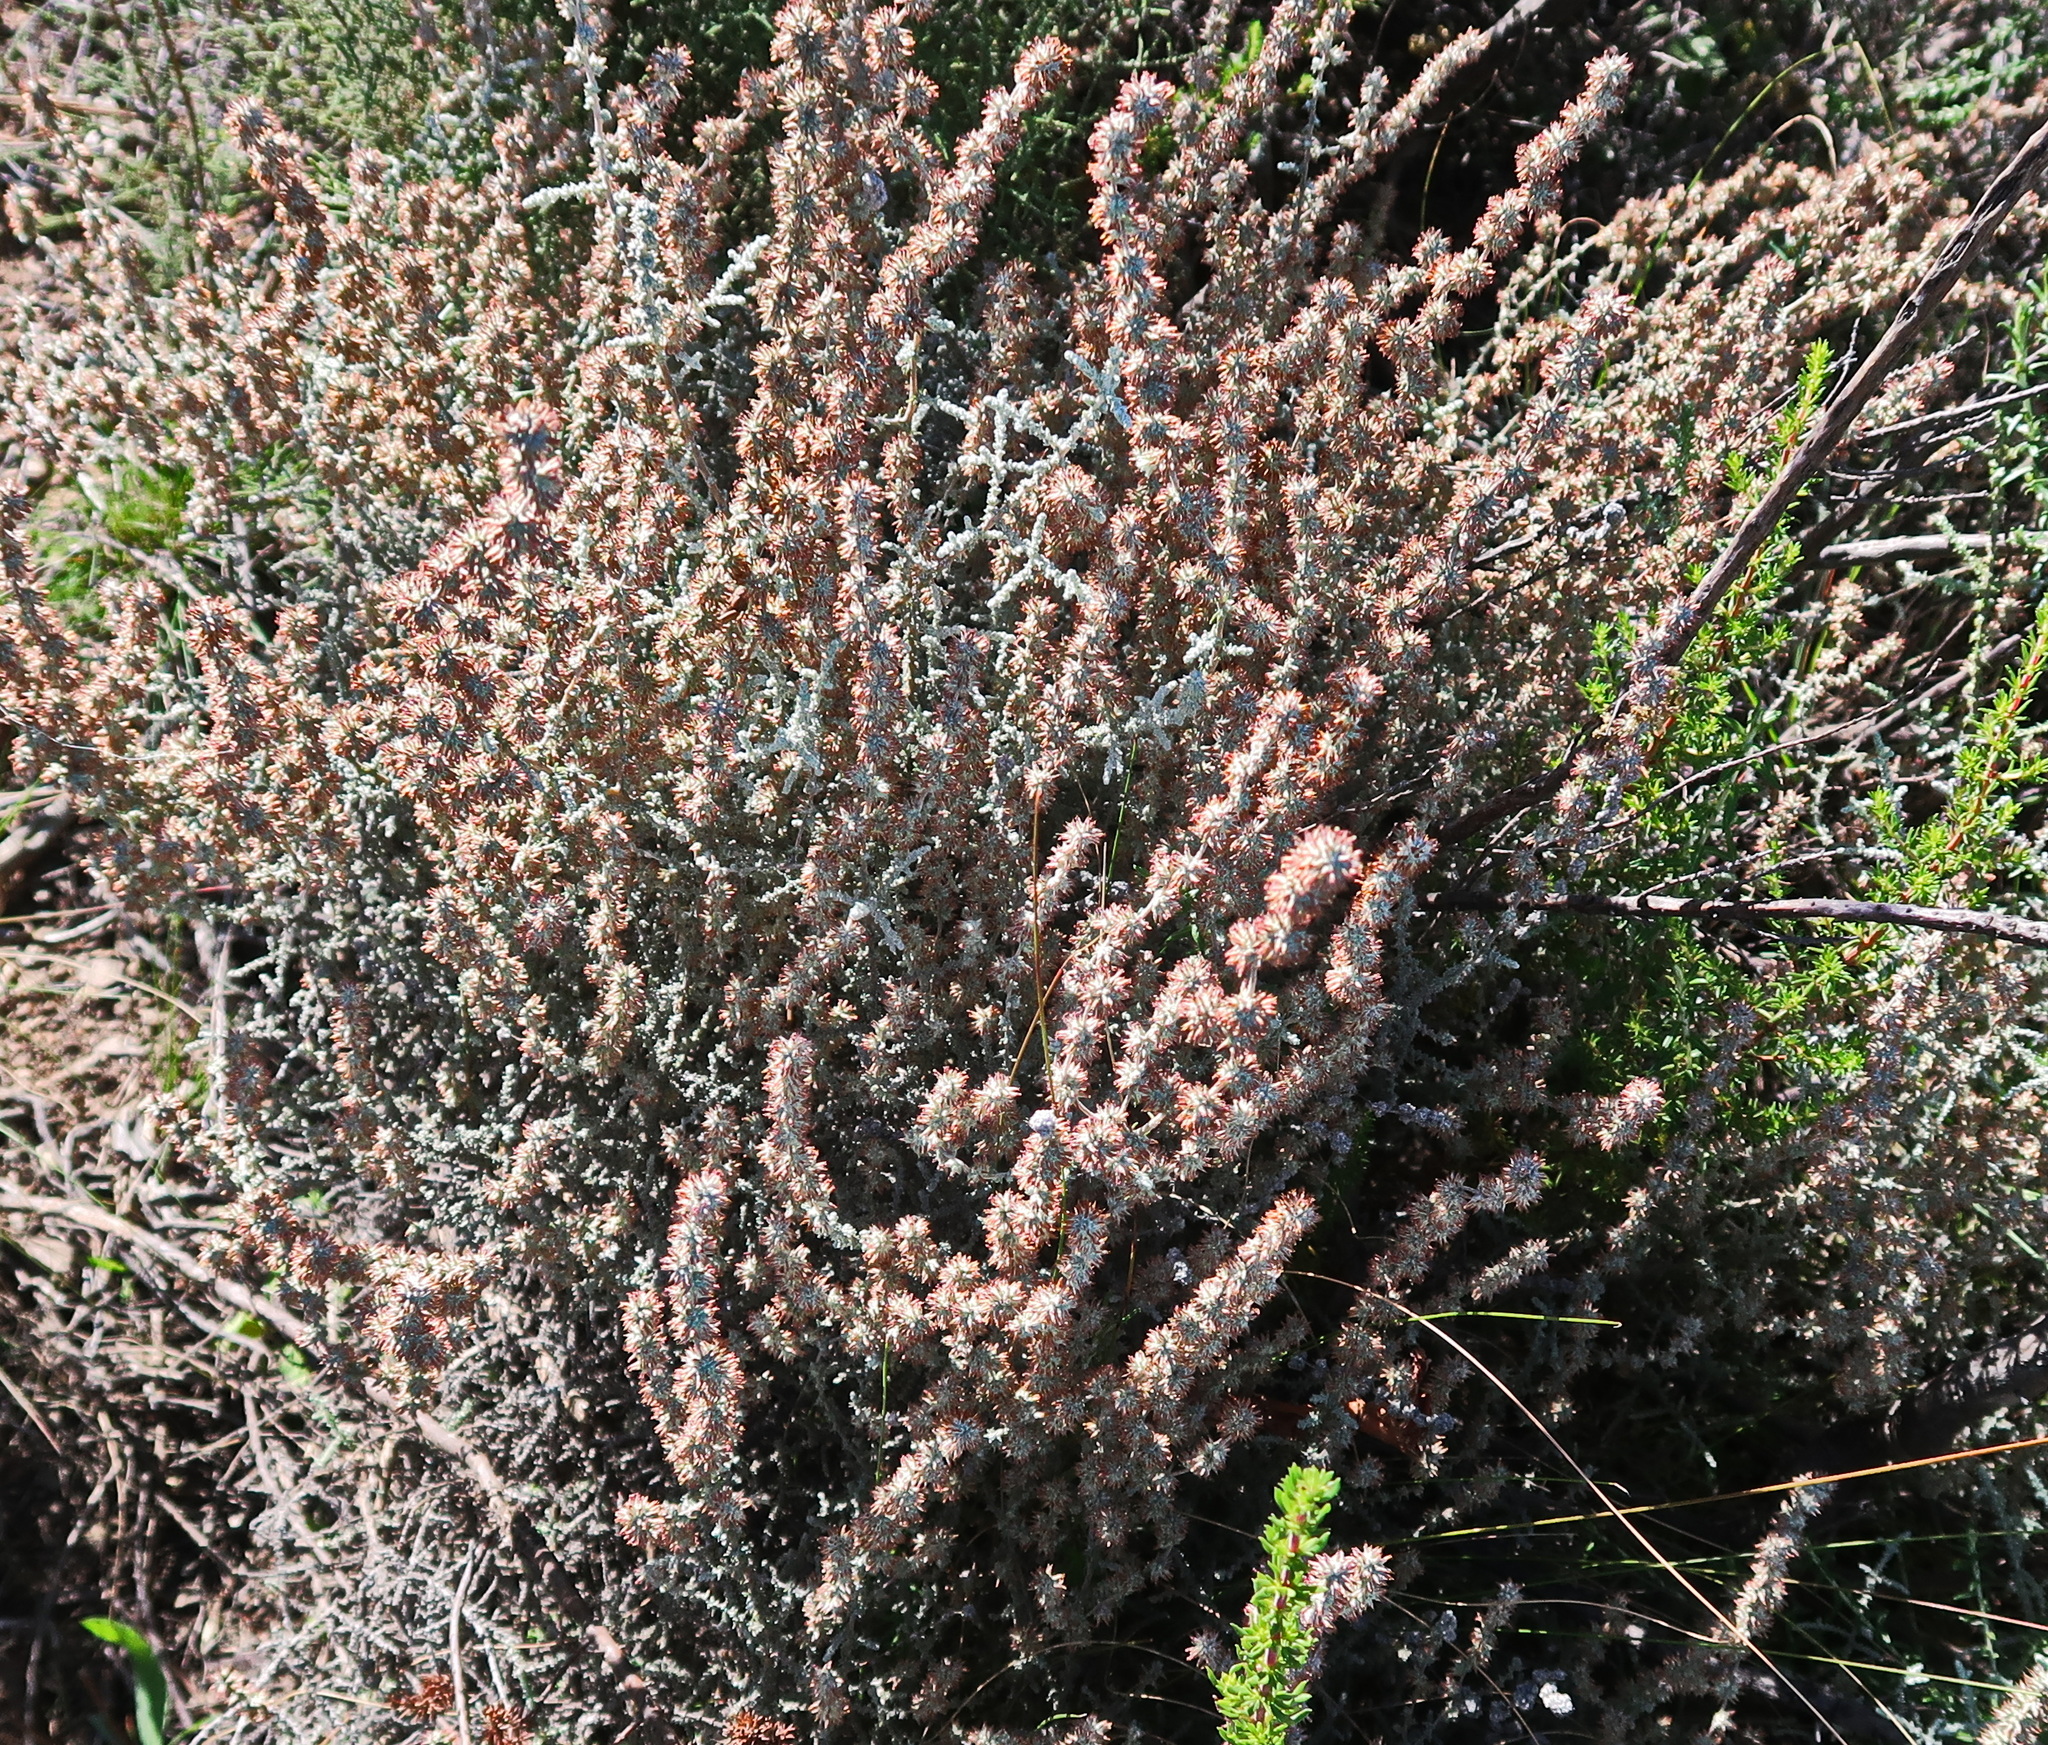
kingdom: Plantae
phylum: Tracheophyta
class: Magnoliopsida
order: Asterales
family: Asteraceae
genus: Seriphium
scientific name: Seriphium plumosum
